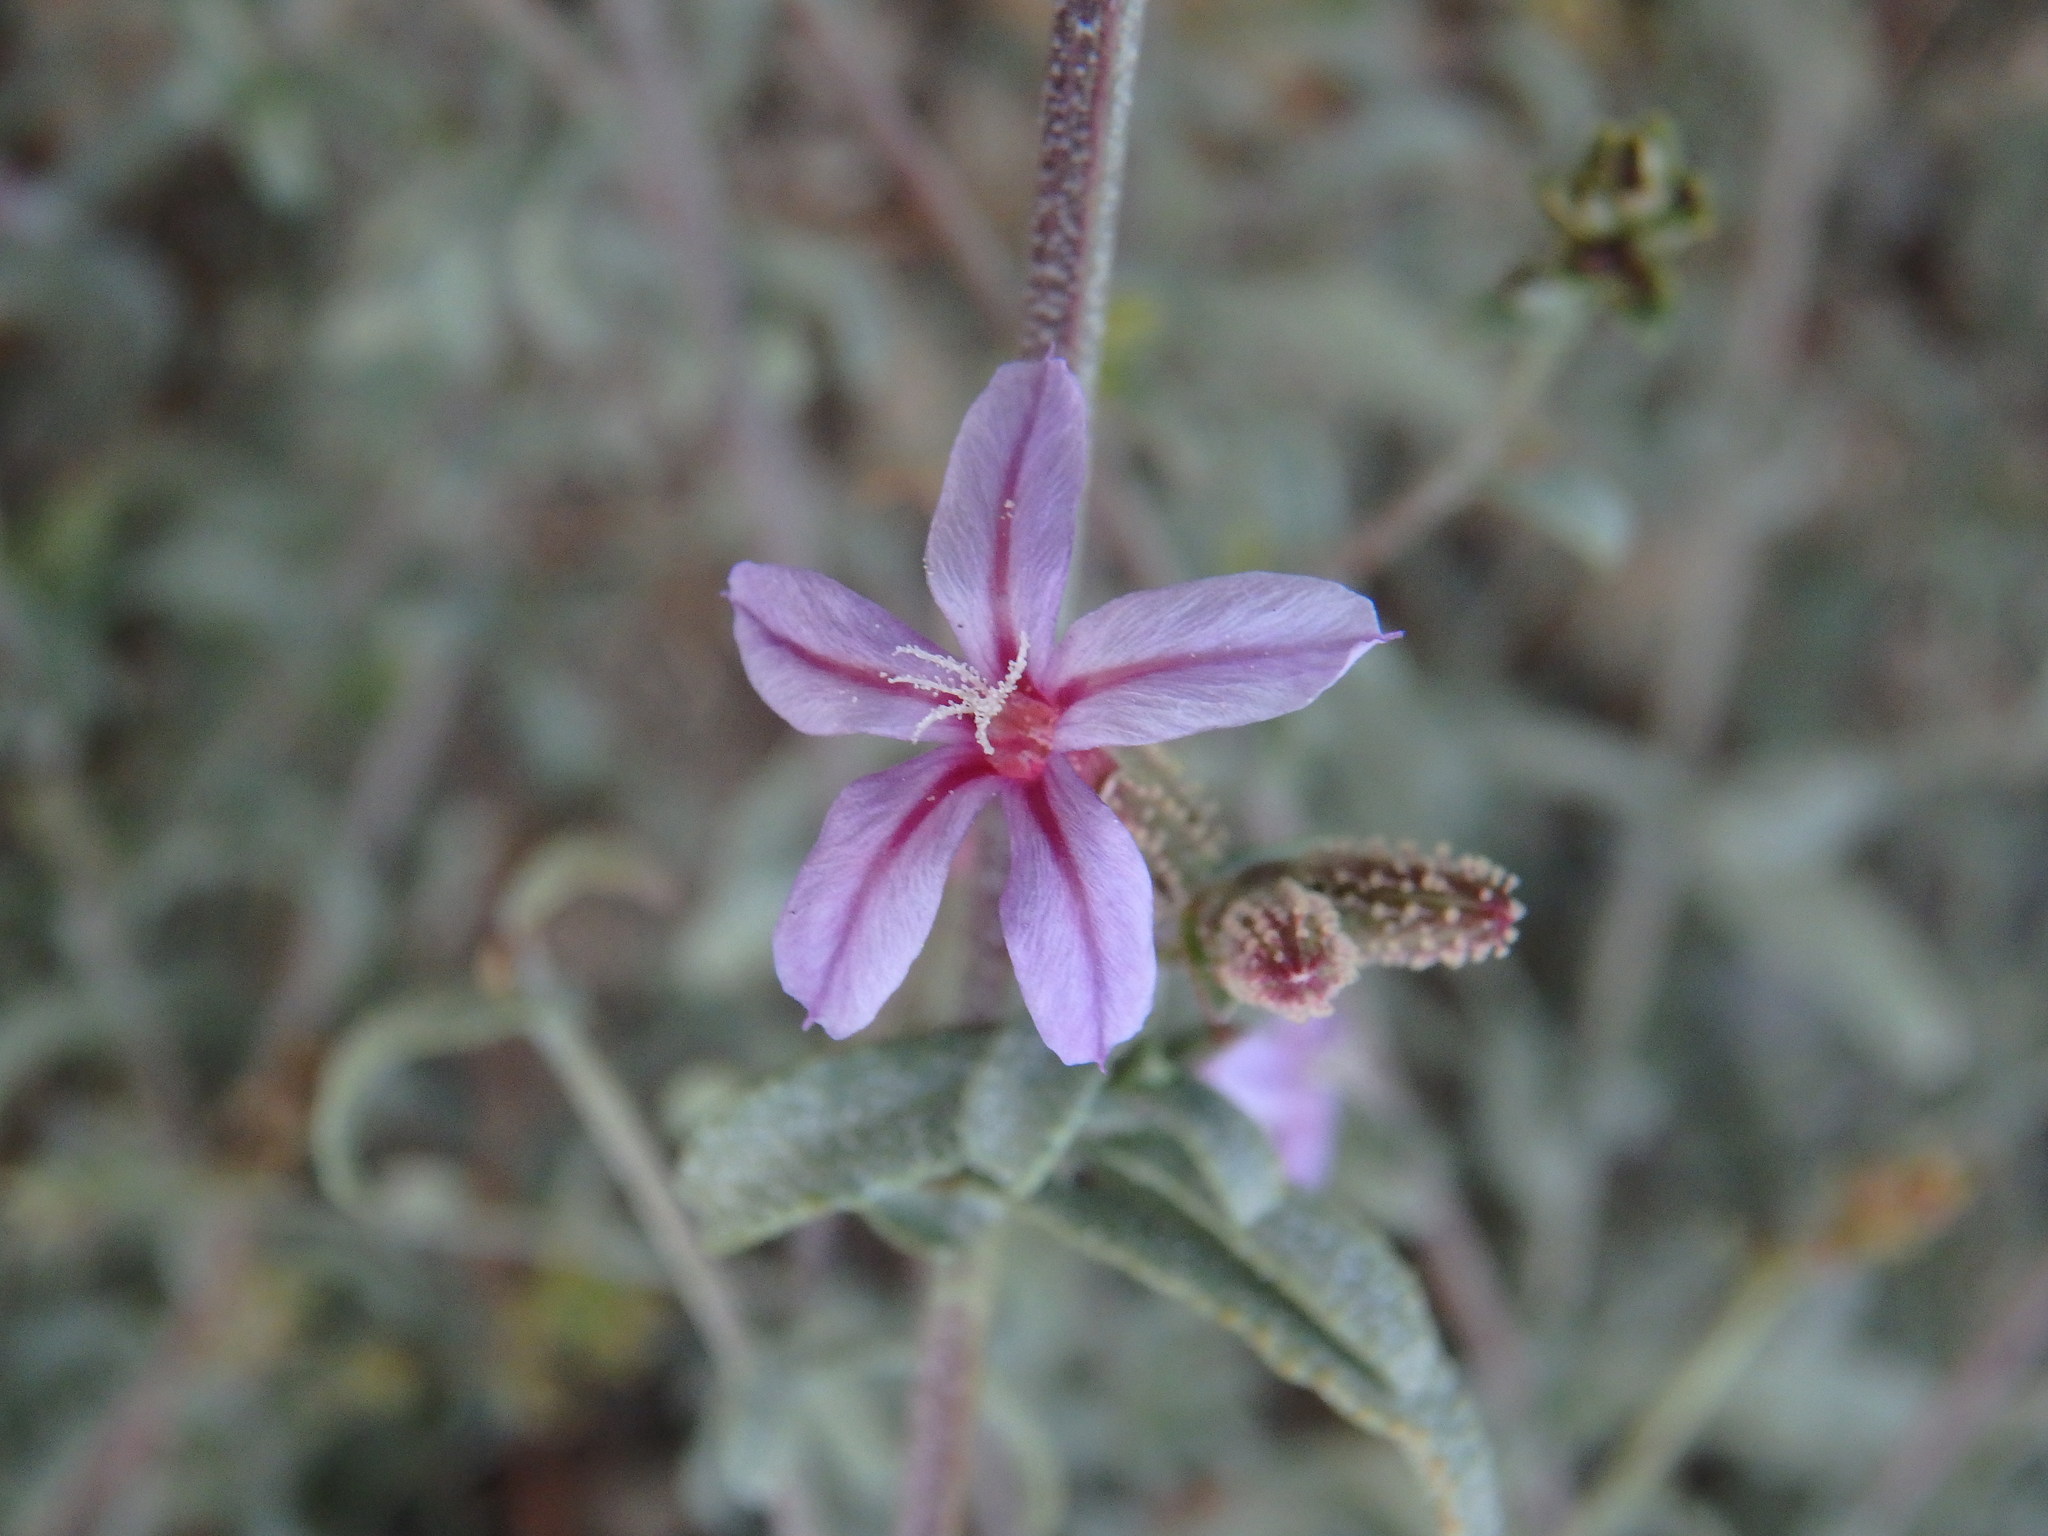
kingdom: Plantae
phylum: Tracheophyta
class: Magnoliopsida
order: Caryophyllales
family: Plumbaginaceae
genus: Plumbago
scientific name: Plumbago europaea
